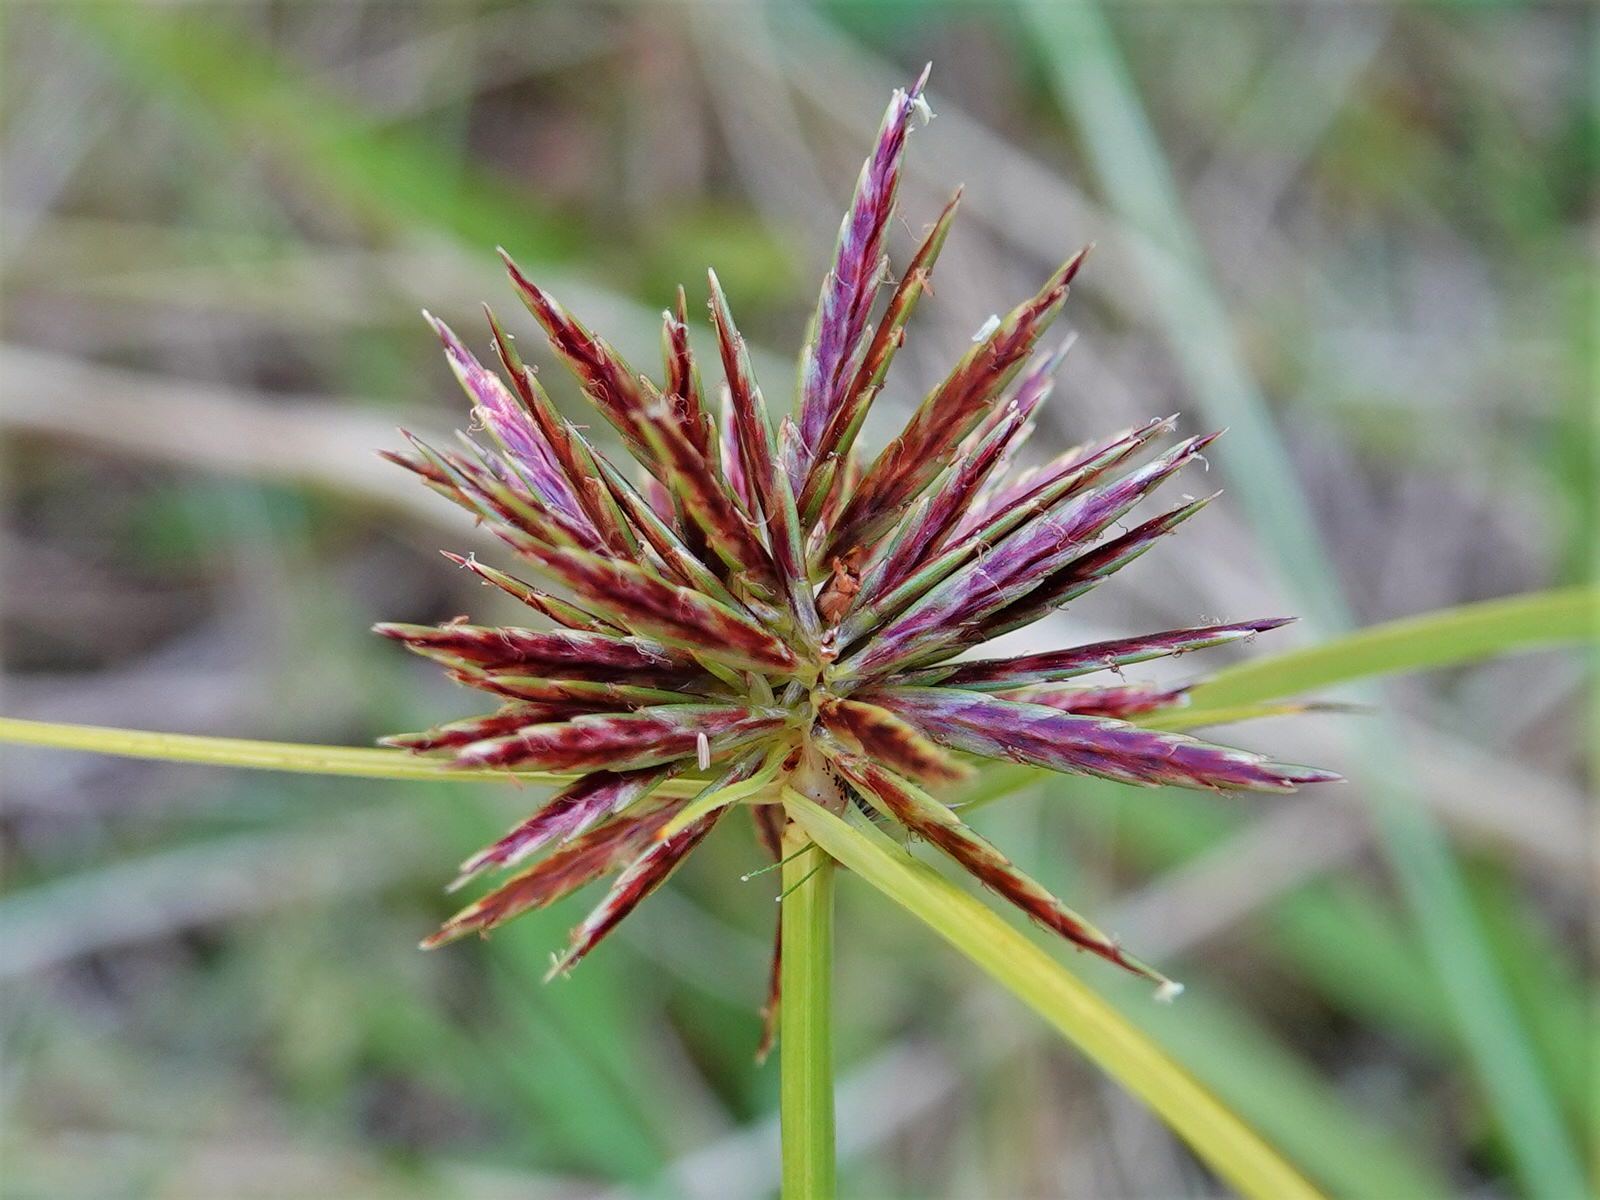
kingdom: Plantae
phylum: Tracheophyta
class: Liliopsida
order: Poales
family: Cyperaceae
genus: Cyperus
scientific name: Cyperus congestus
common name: Dense flat sedge
